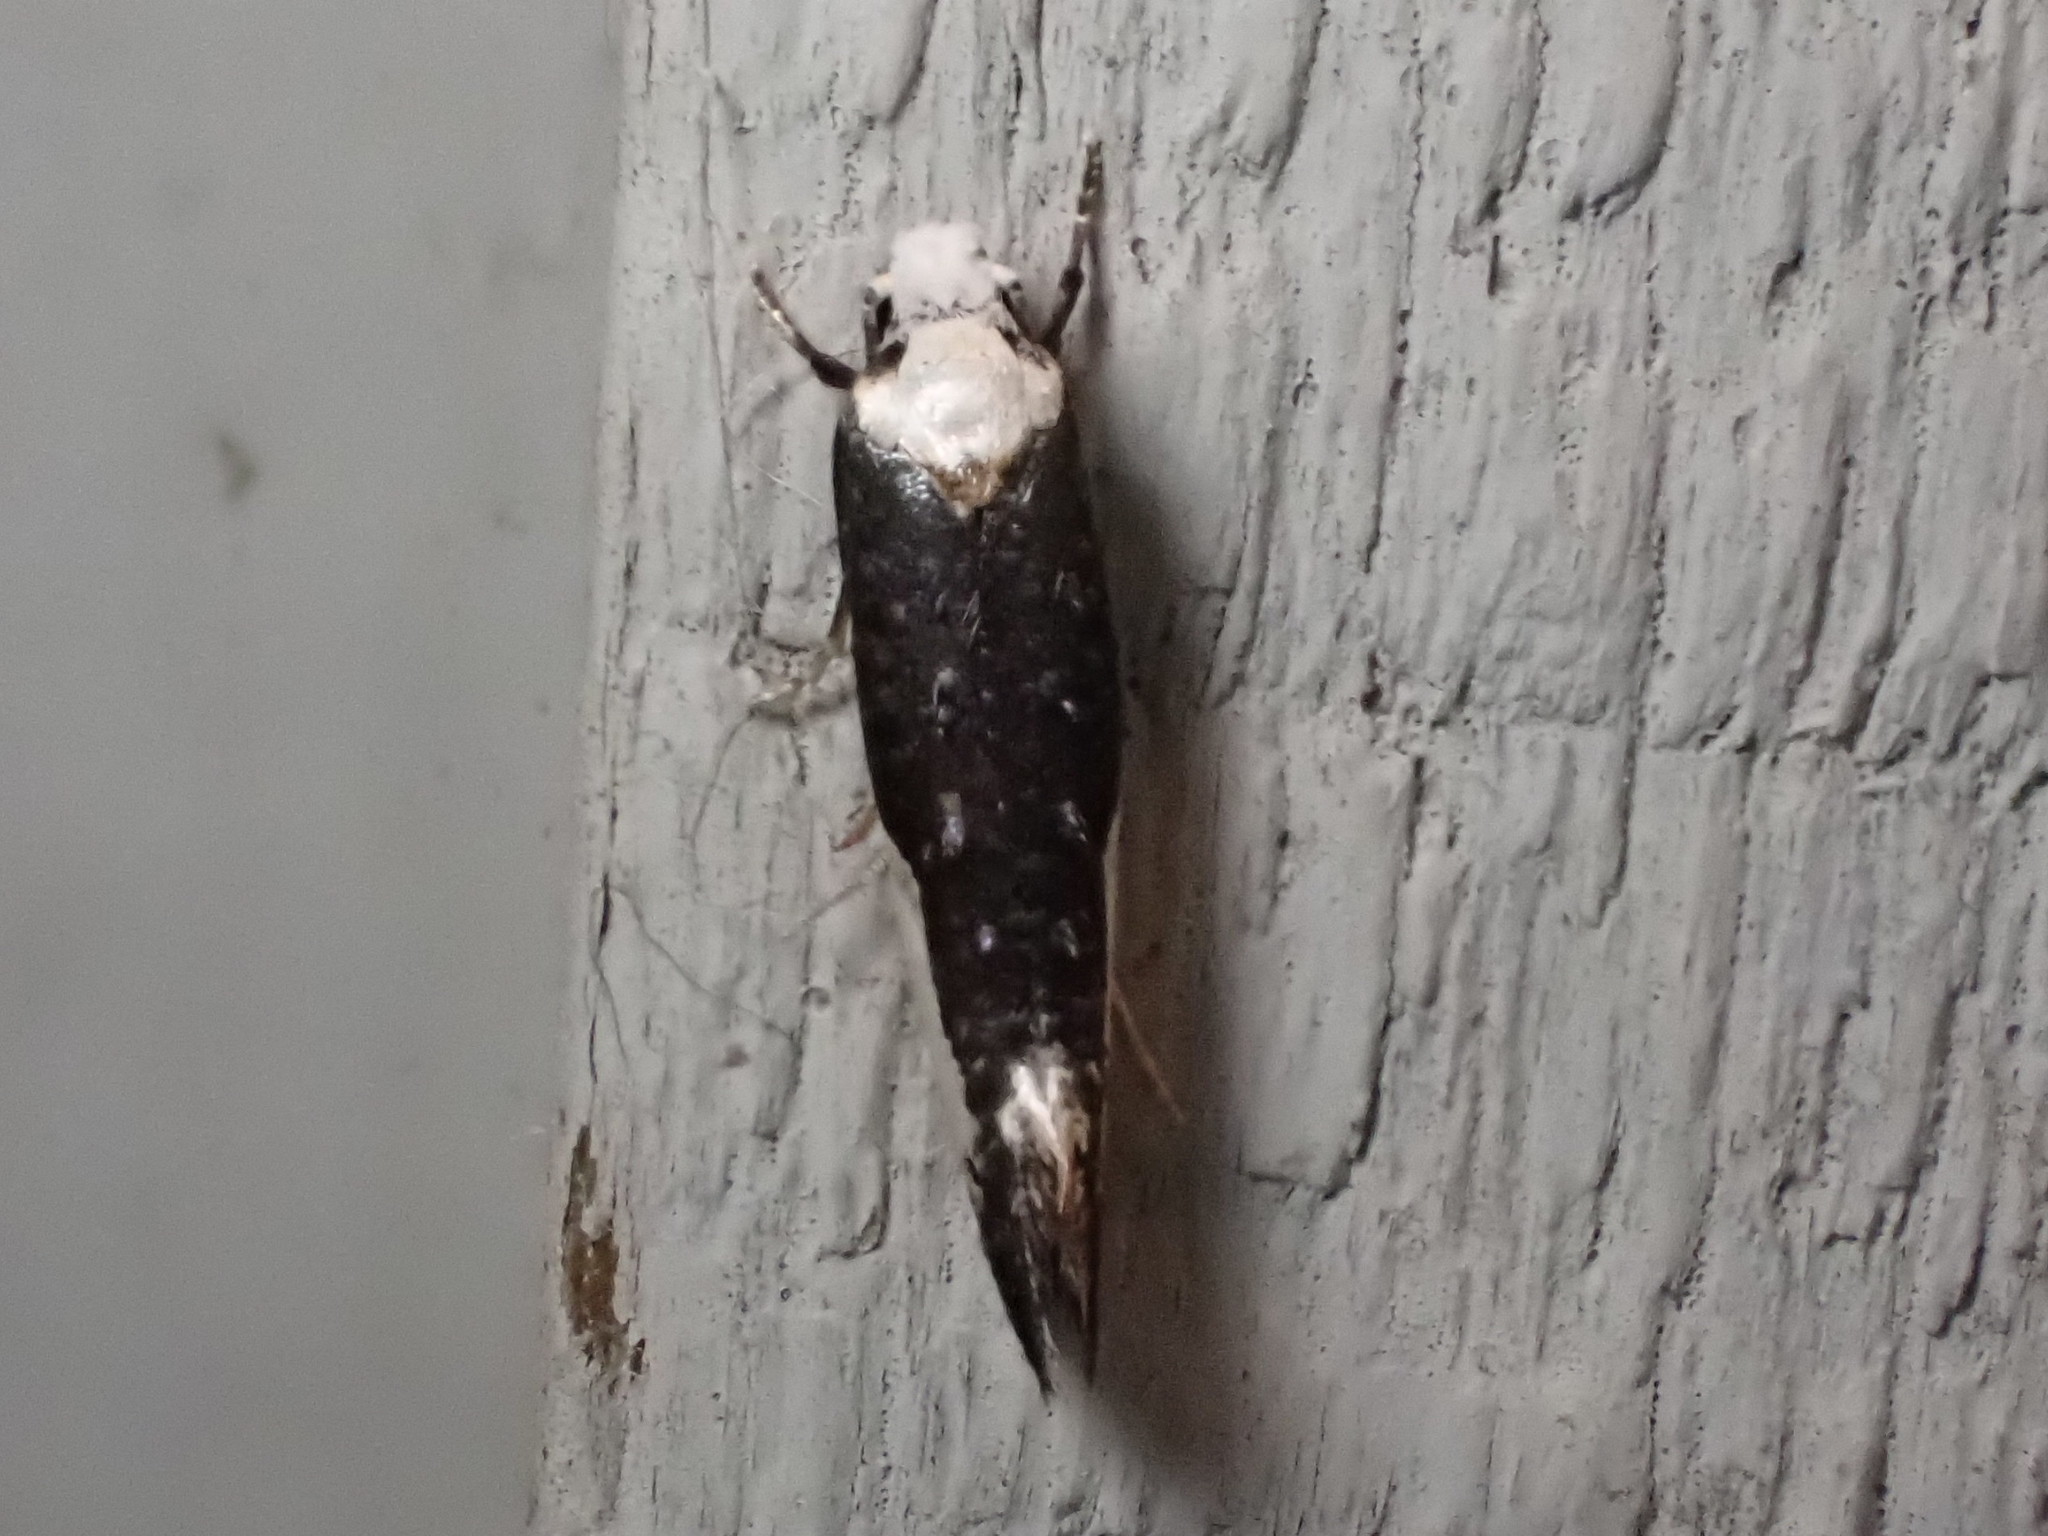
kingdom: Animalia
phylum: Arthropoda
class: Insecta
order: Lepidoptera
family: Tineidae
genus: Monopis
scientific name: Monopis monachella
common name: Moth
